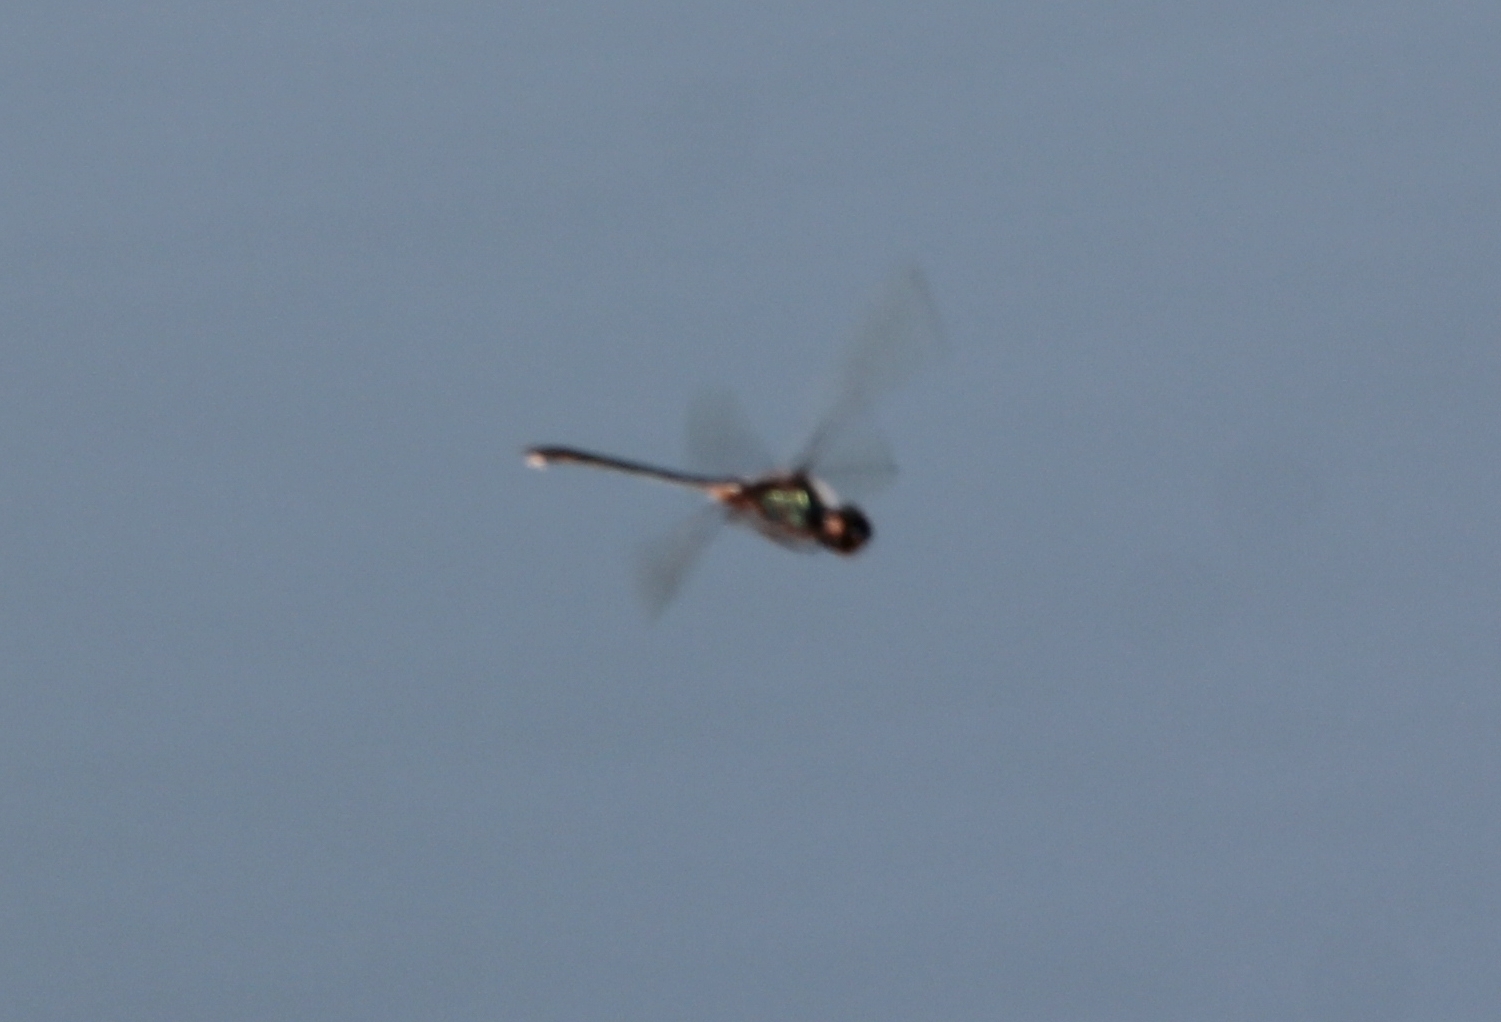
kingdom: Animalia
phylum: Arthropoda
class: Insecta
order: Odonata
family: Libellulidae
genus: Idiataphe
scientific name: Idiataphe cubensis
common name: Metallic pennant
